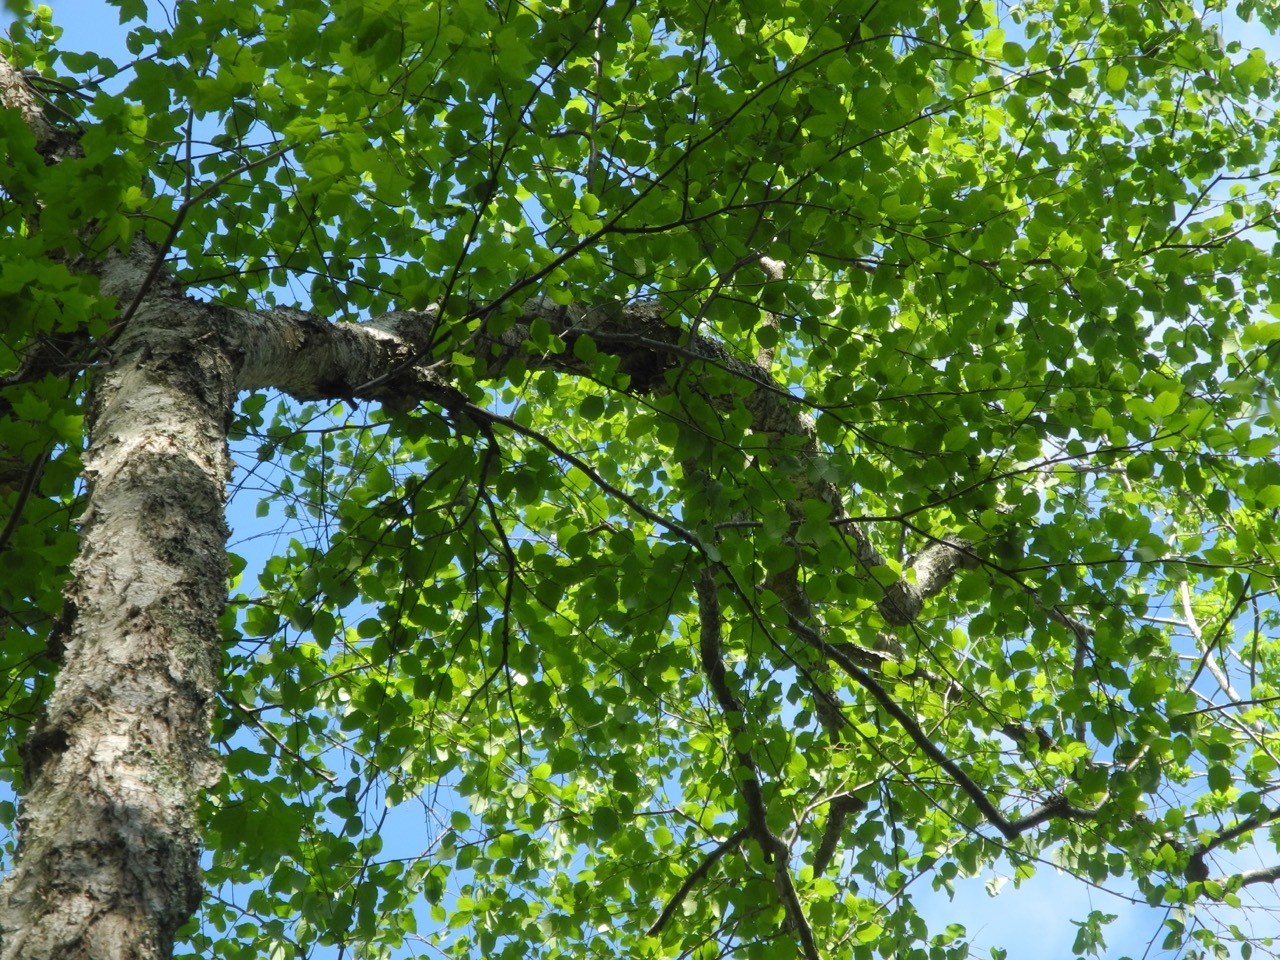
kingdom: Plantae
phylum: Tracheophyta
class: Magnoliopsida
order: Fagales
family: Betulaceae
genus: Betula
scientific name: Betula nigra
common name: Black birch
